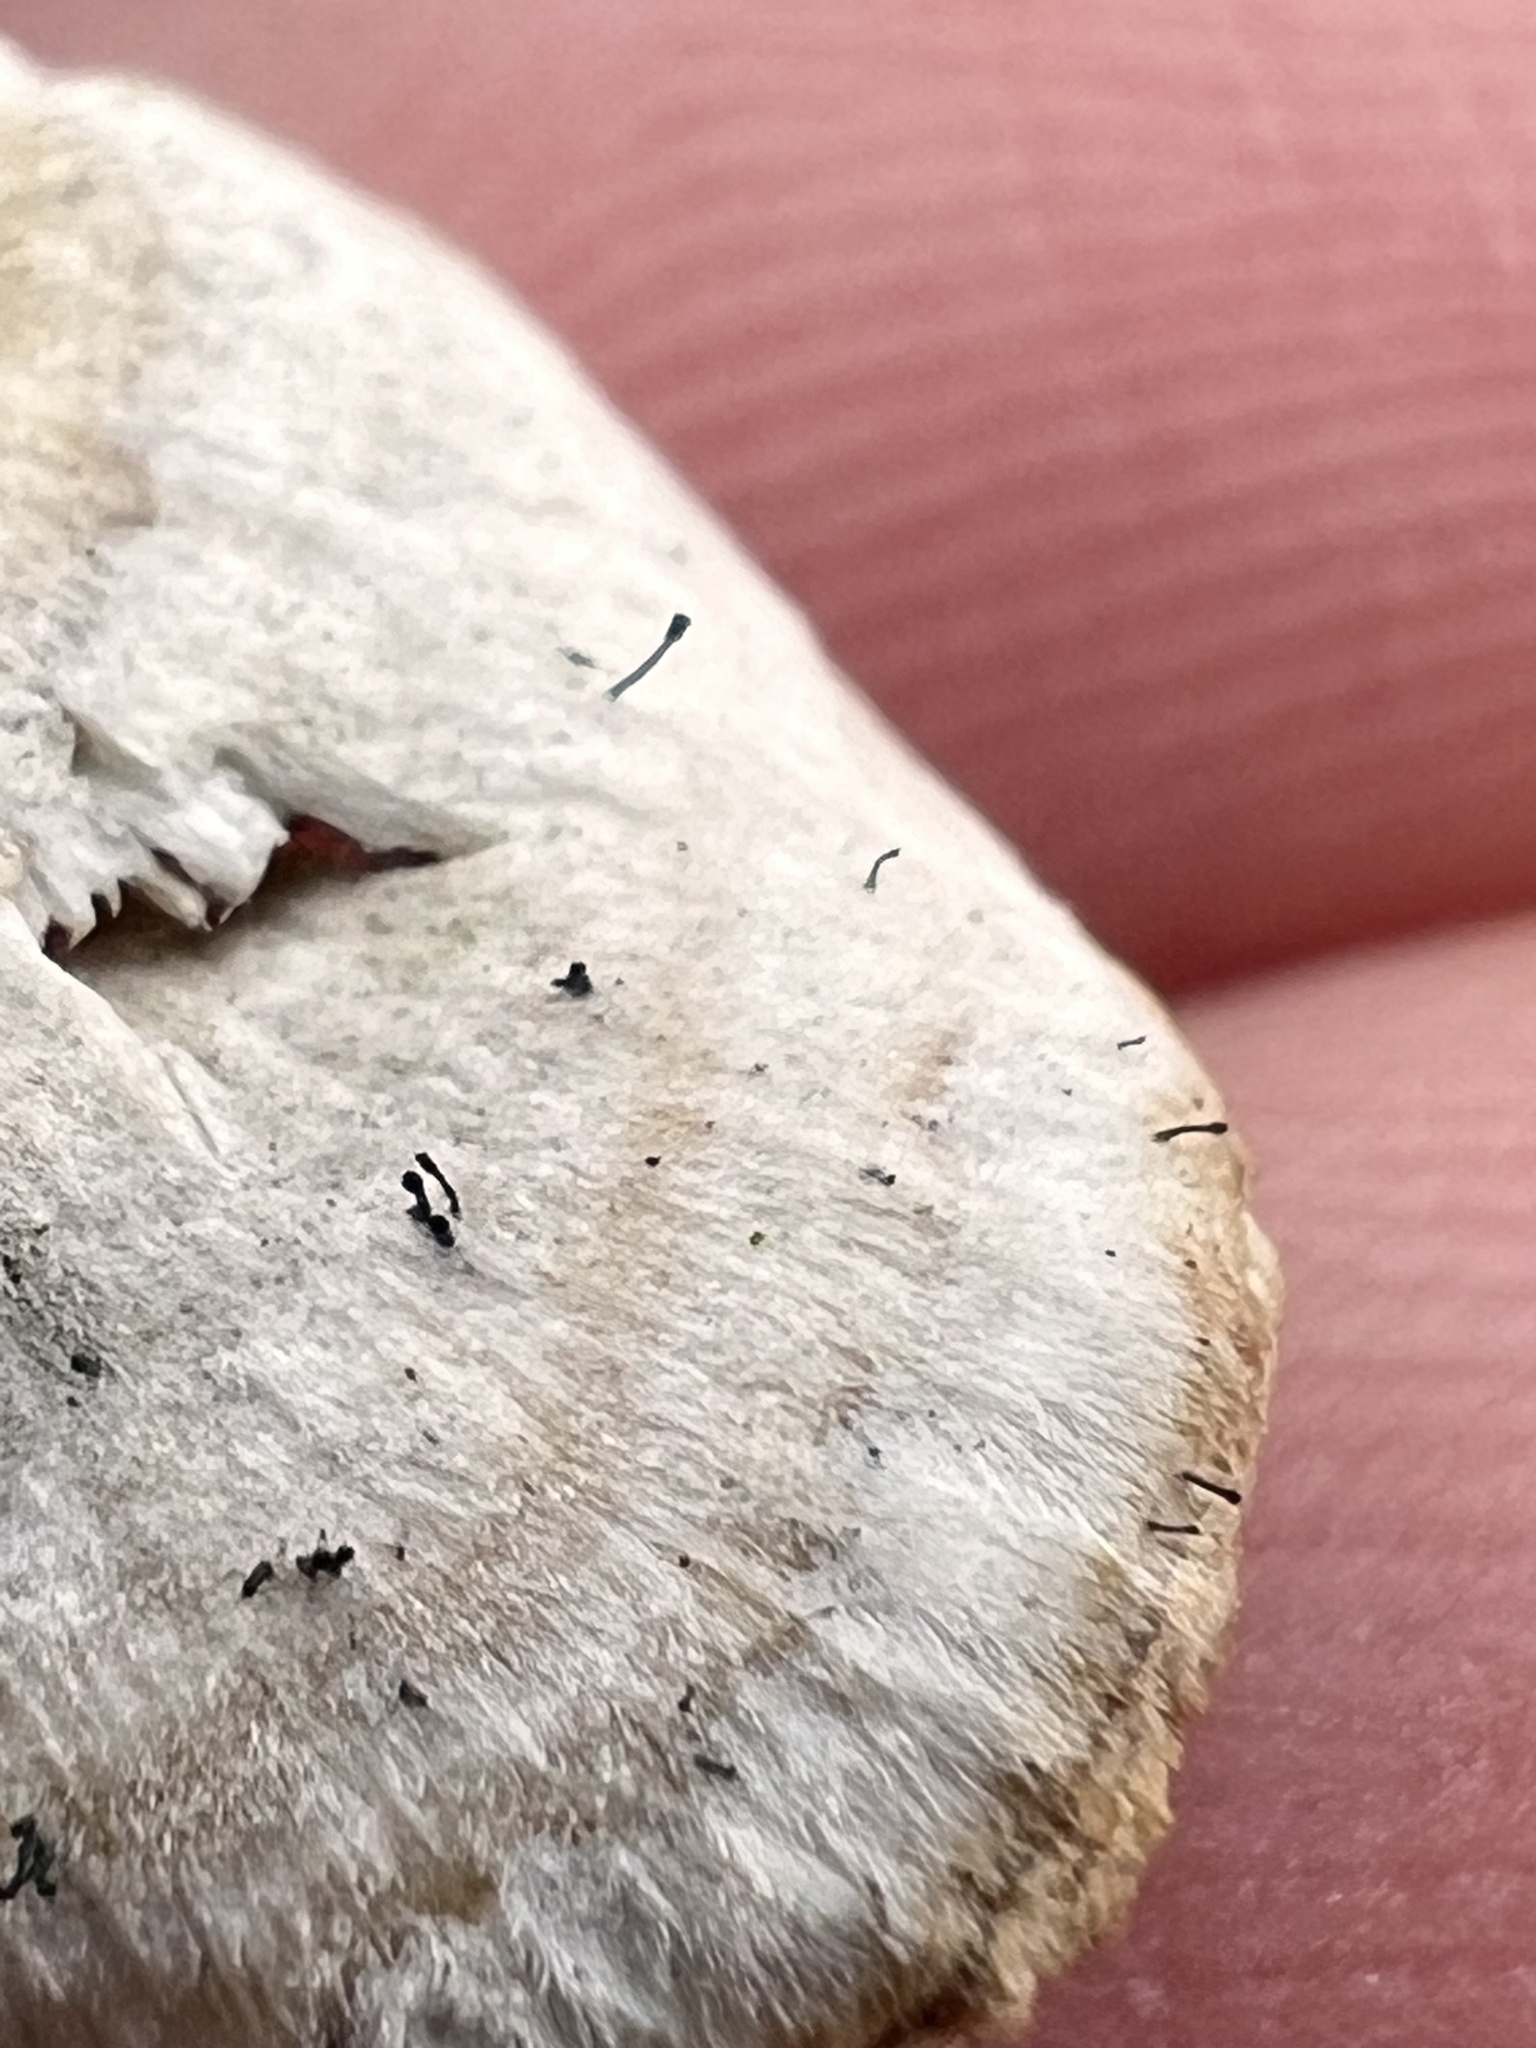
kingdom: Fungi
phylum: Ascomycota
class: Eurotiomycetes
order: Mycocaliciales
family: Mycocaliciaceae
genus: Phaeocalicium
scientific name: Phaeocalicium polyporaeum
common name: Fairy pins
